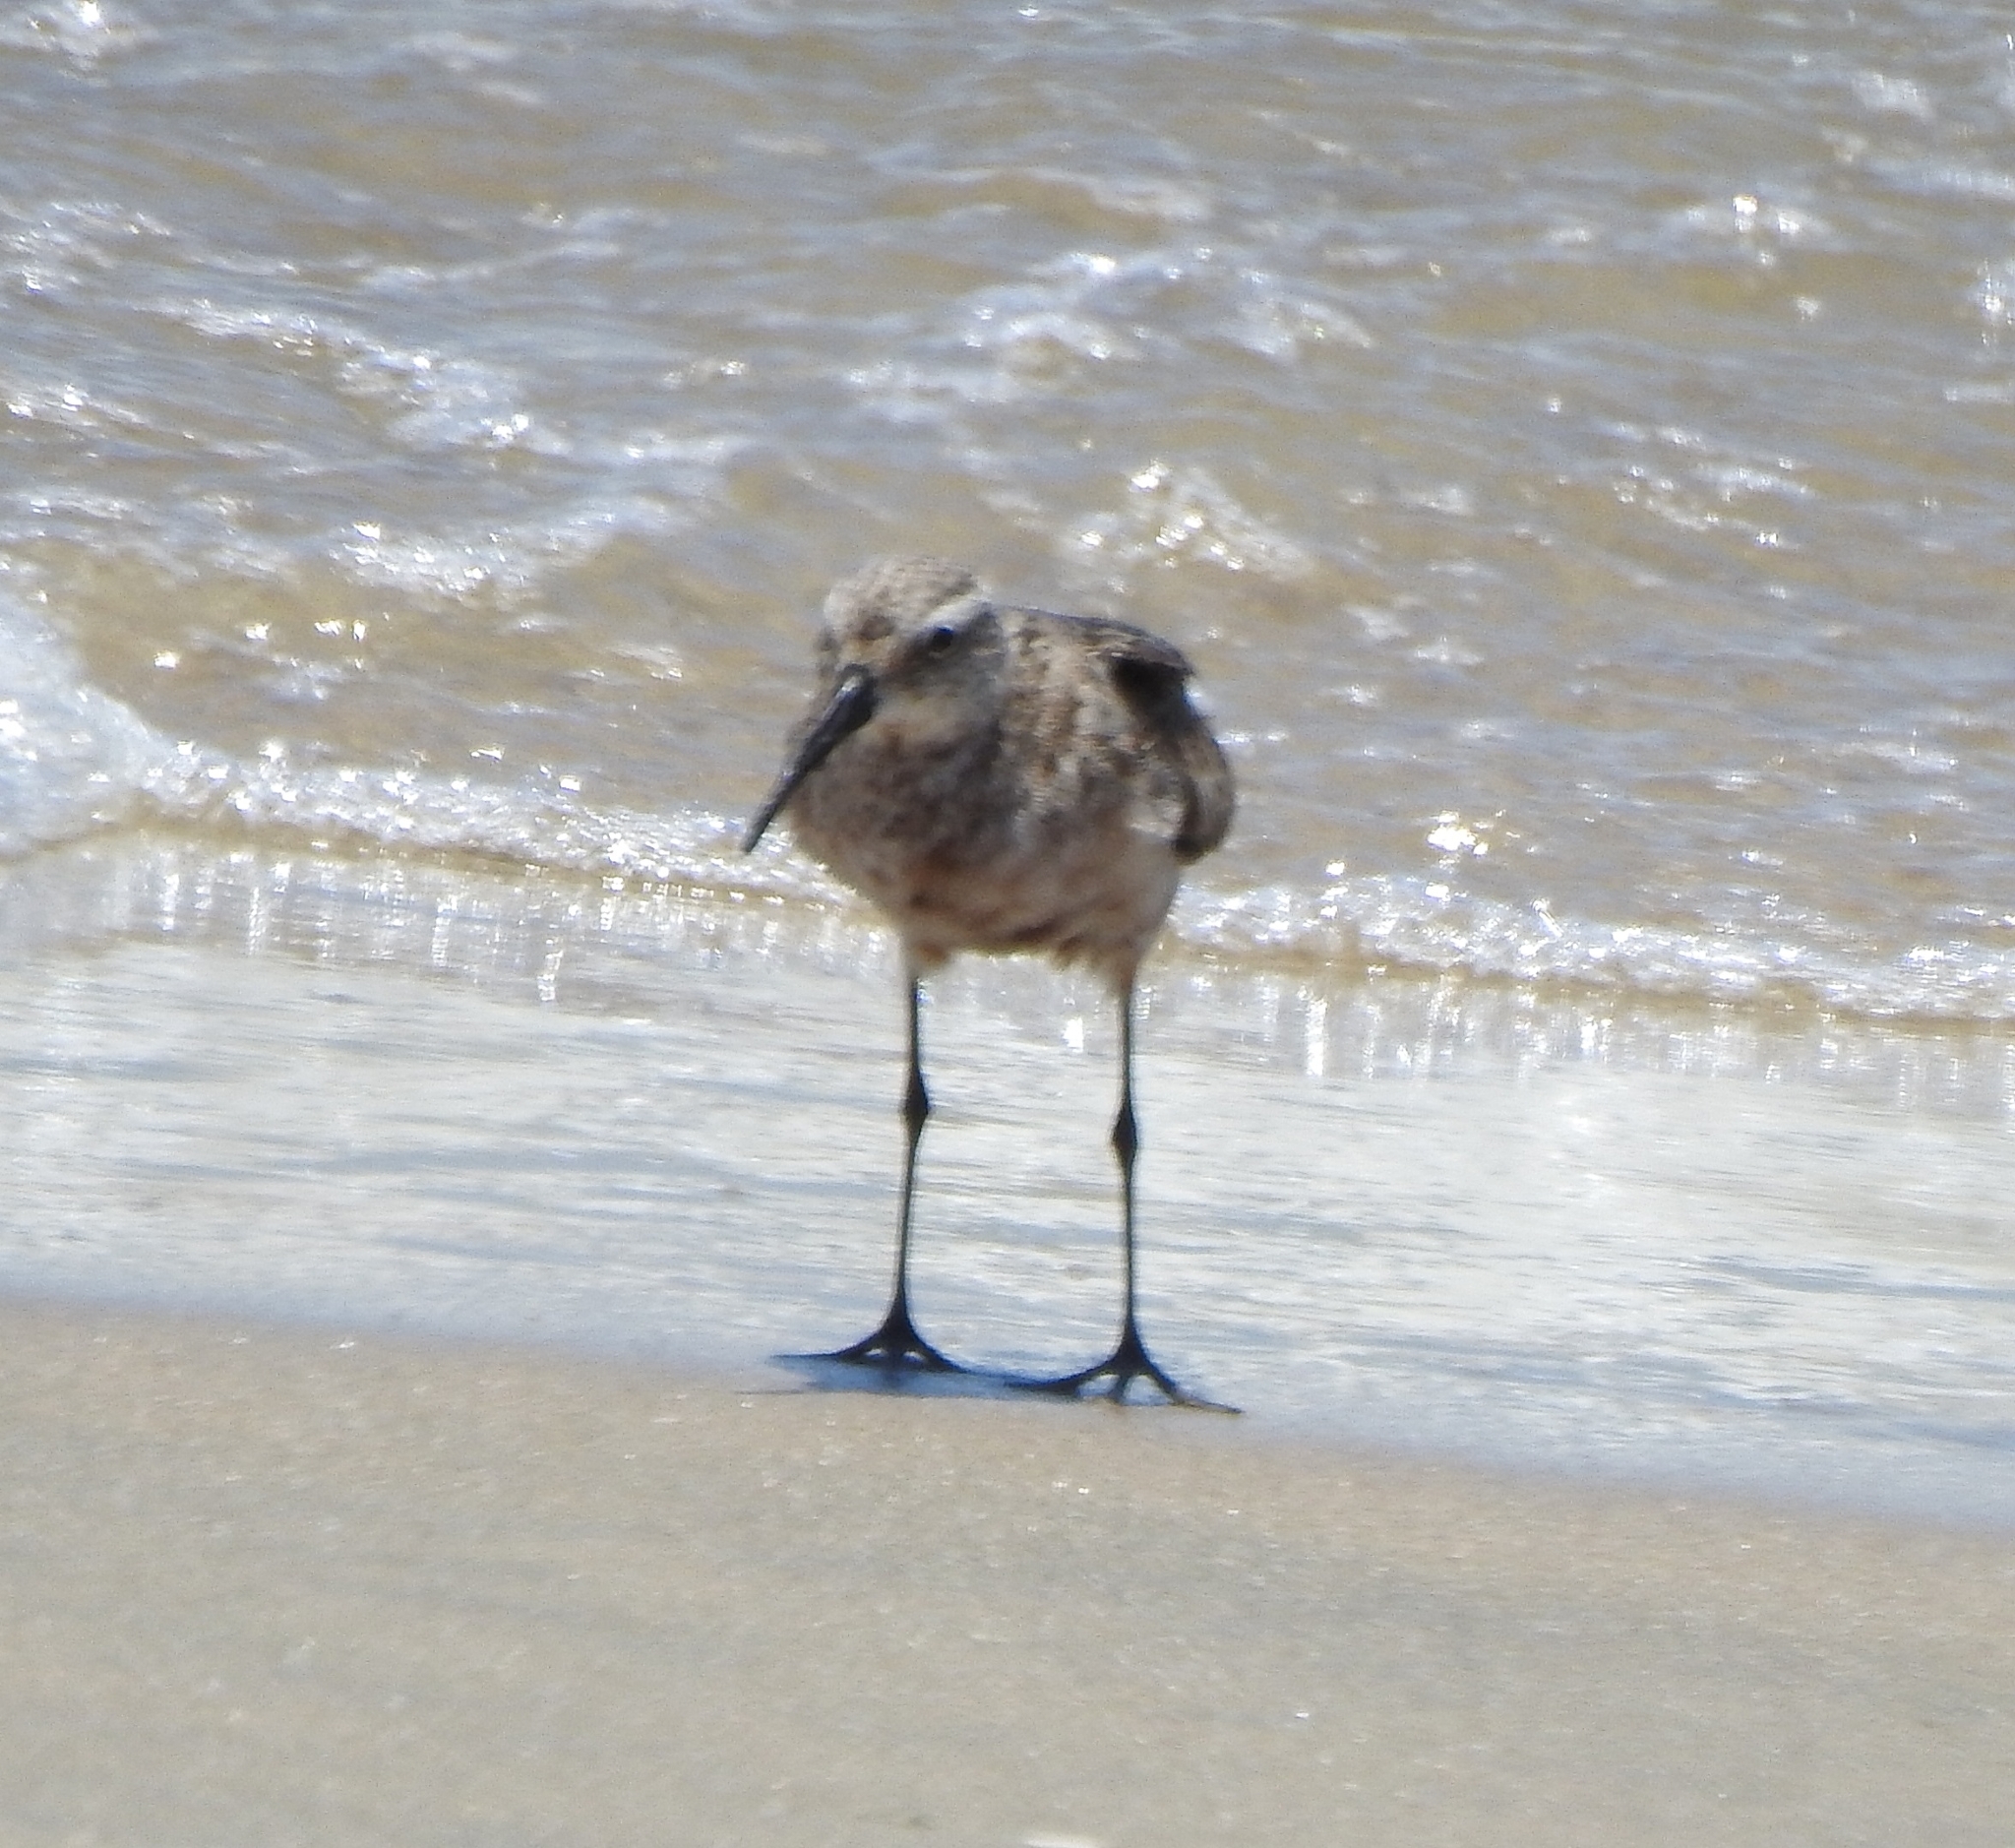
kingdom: Animalia
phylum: Chordata
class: Aves
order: Charadriiformes
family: Scolopacidae
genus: Calidris
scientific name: Calidris ferruginea
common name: Curlew sandpiper
